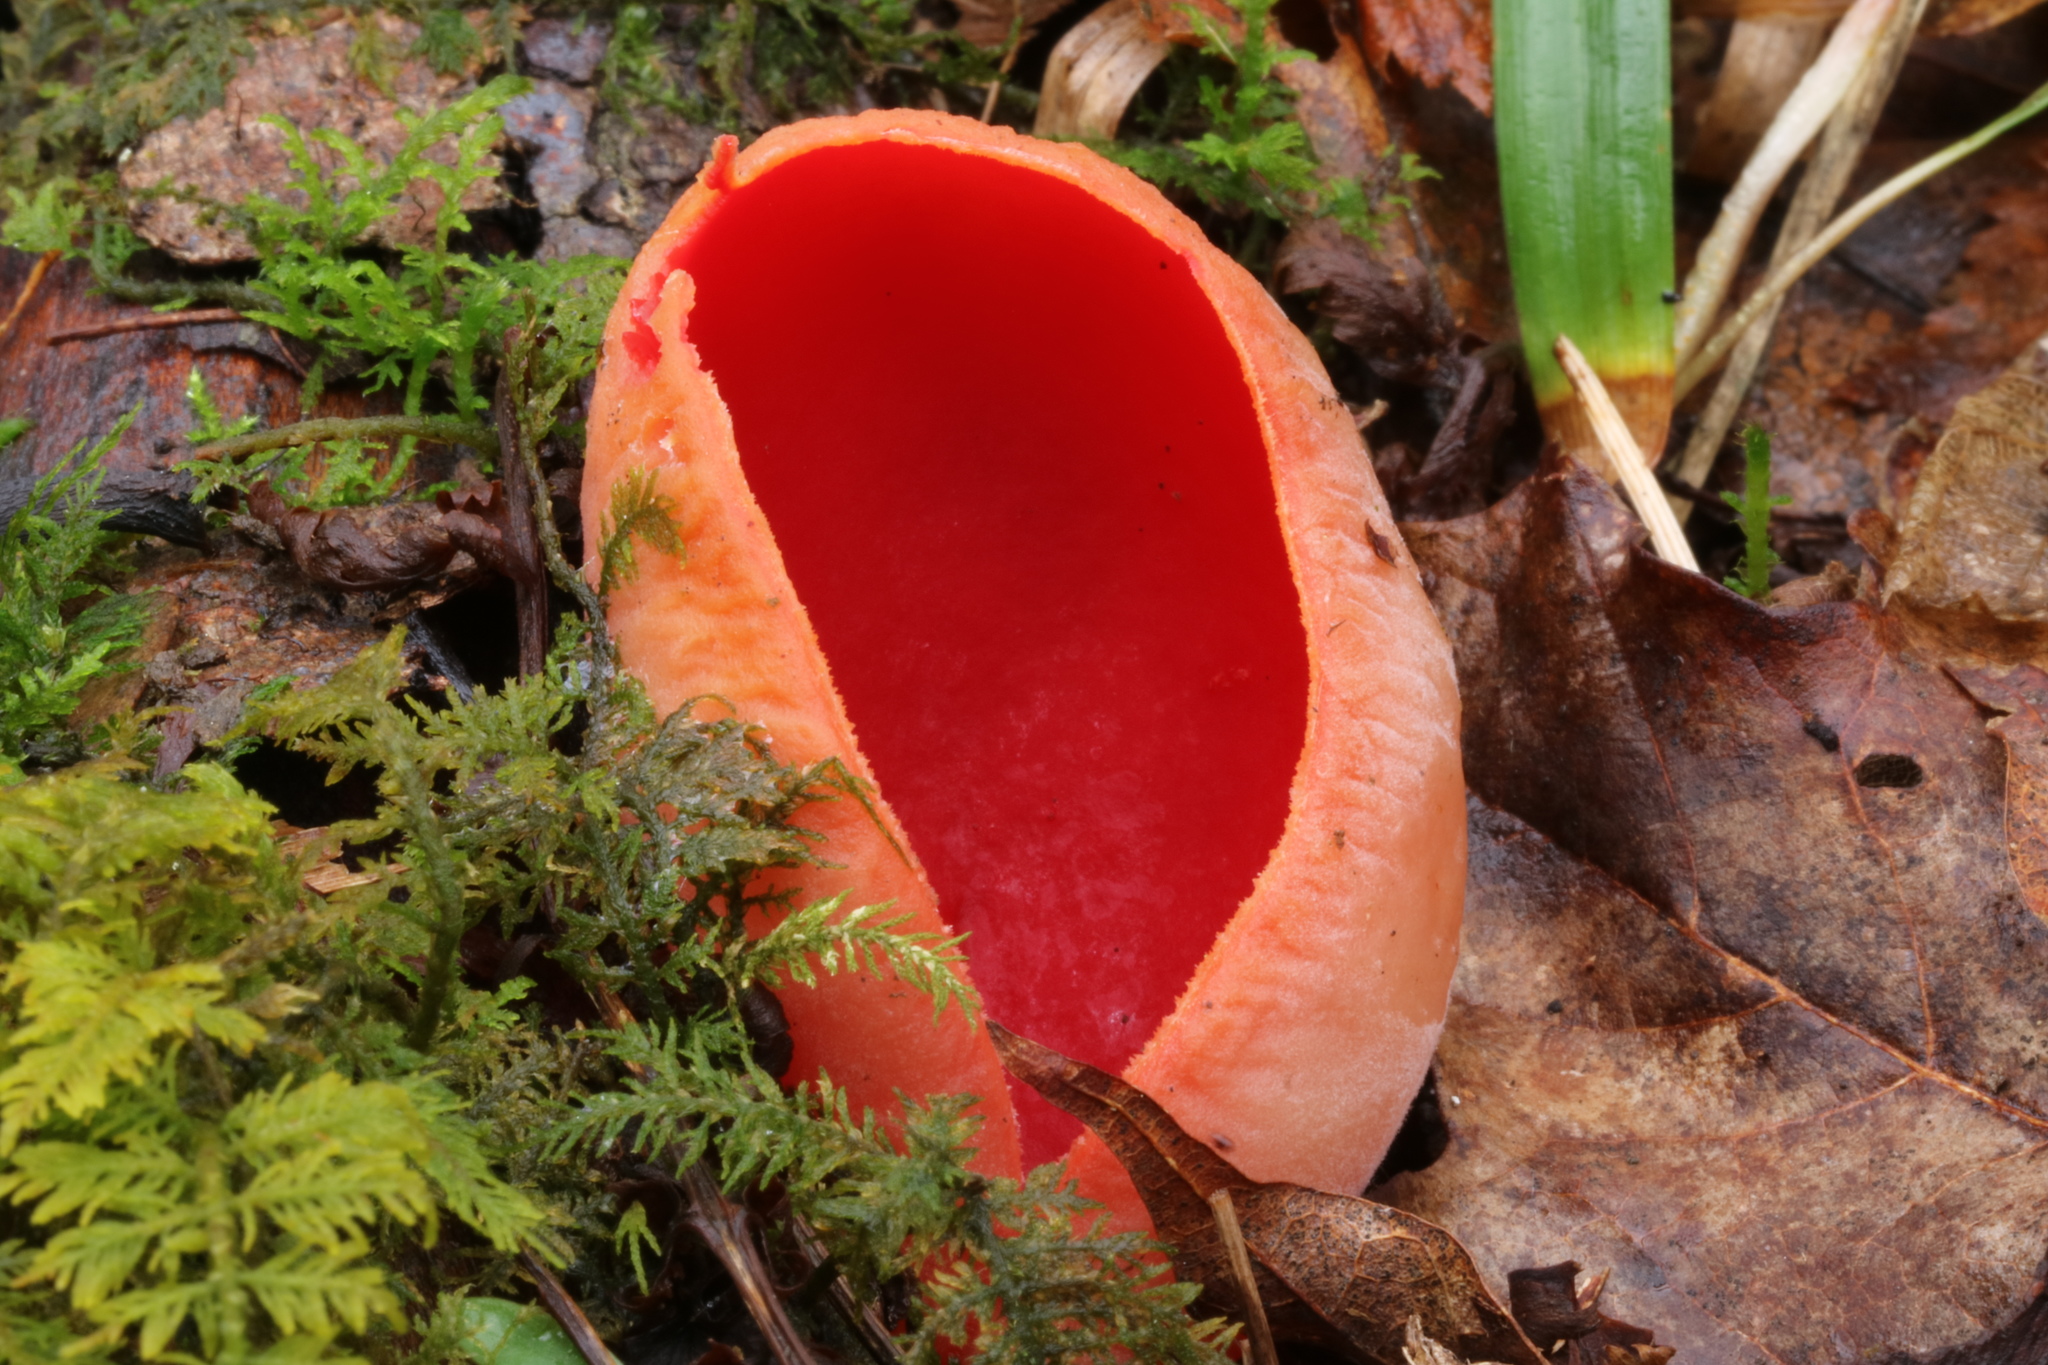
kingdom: Fungi
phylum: Ascomycota
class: Pezizomycetes
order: Pezizales
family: Sarcoscyphaceae
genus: Sarcoscypha
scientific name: Sarcoscypha austriaca
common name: Scarlet elfcup
